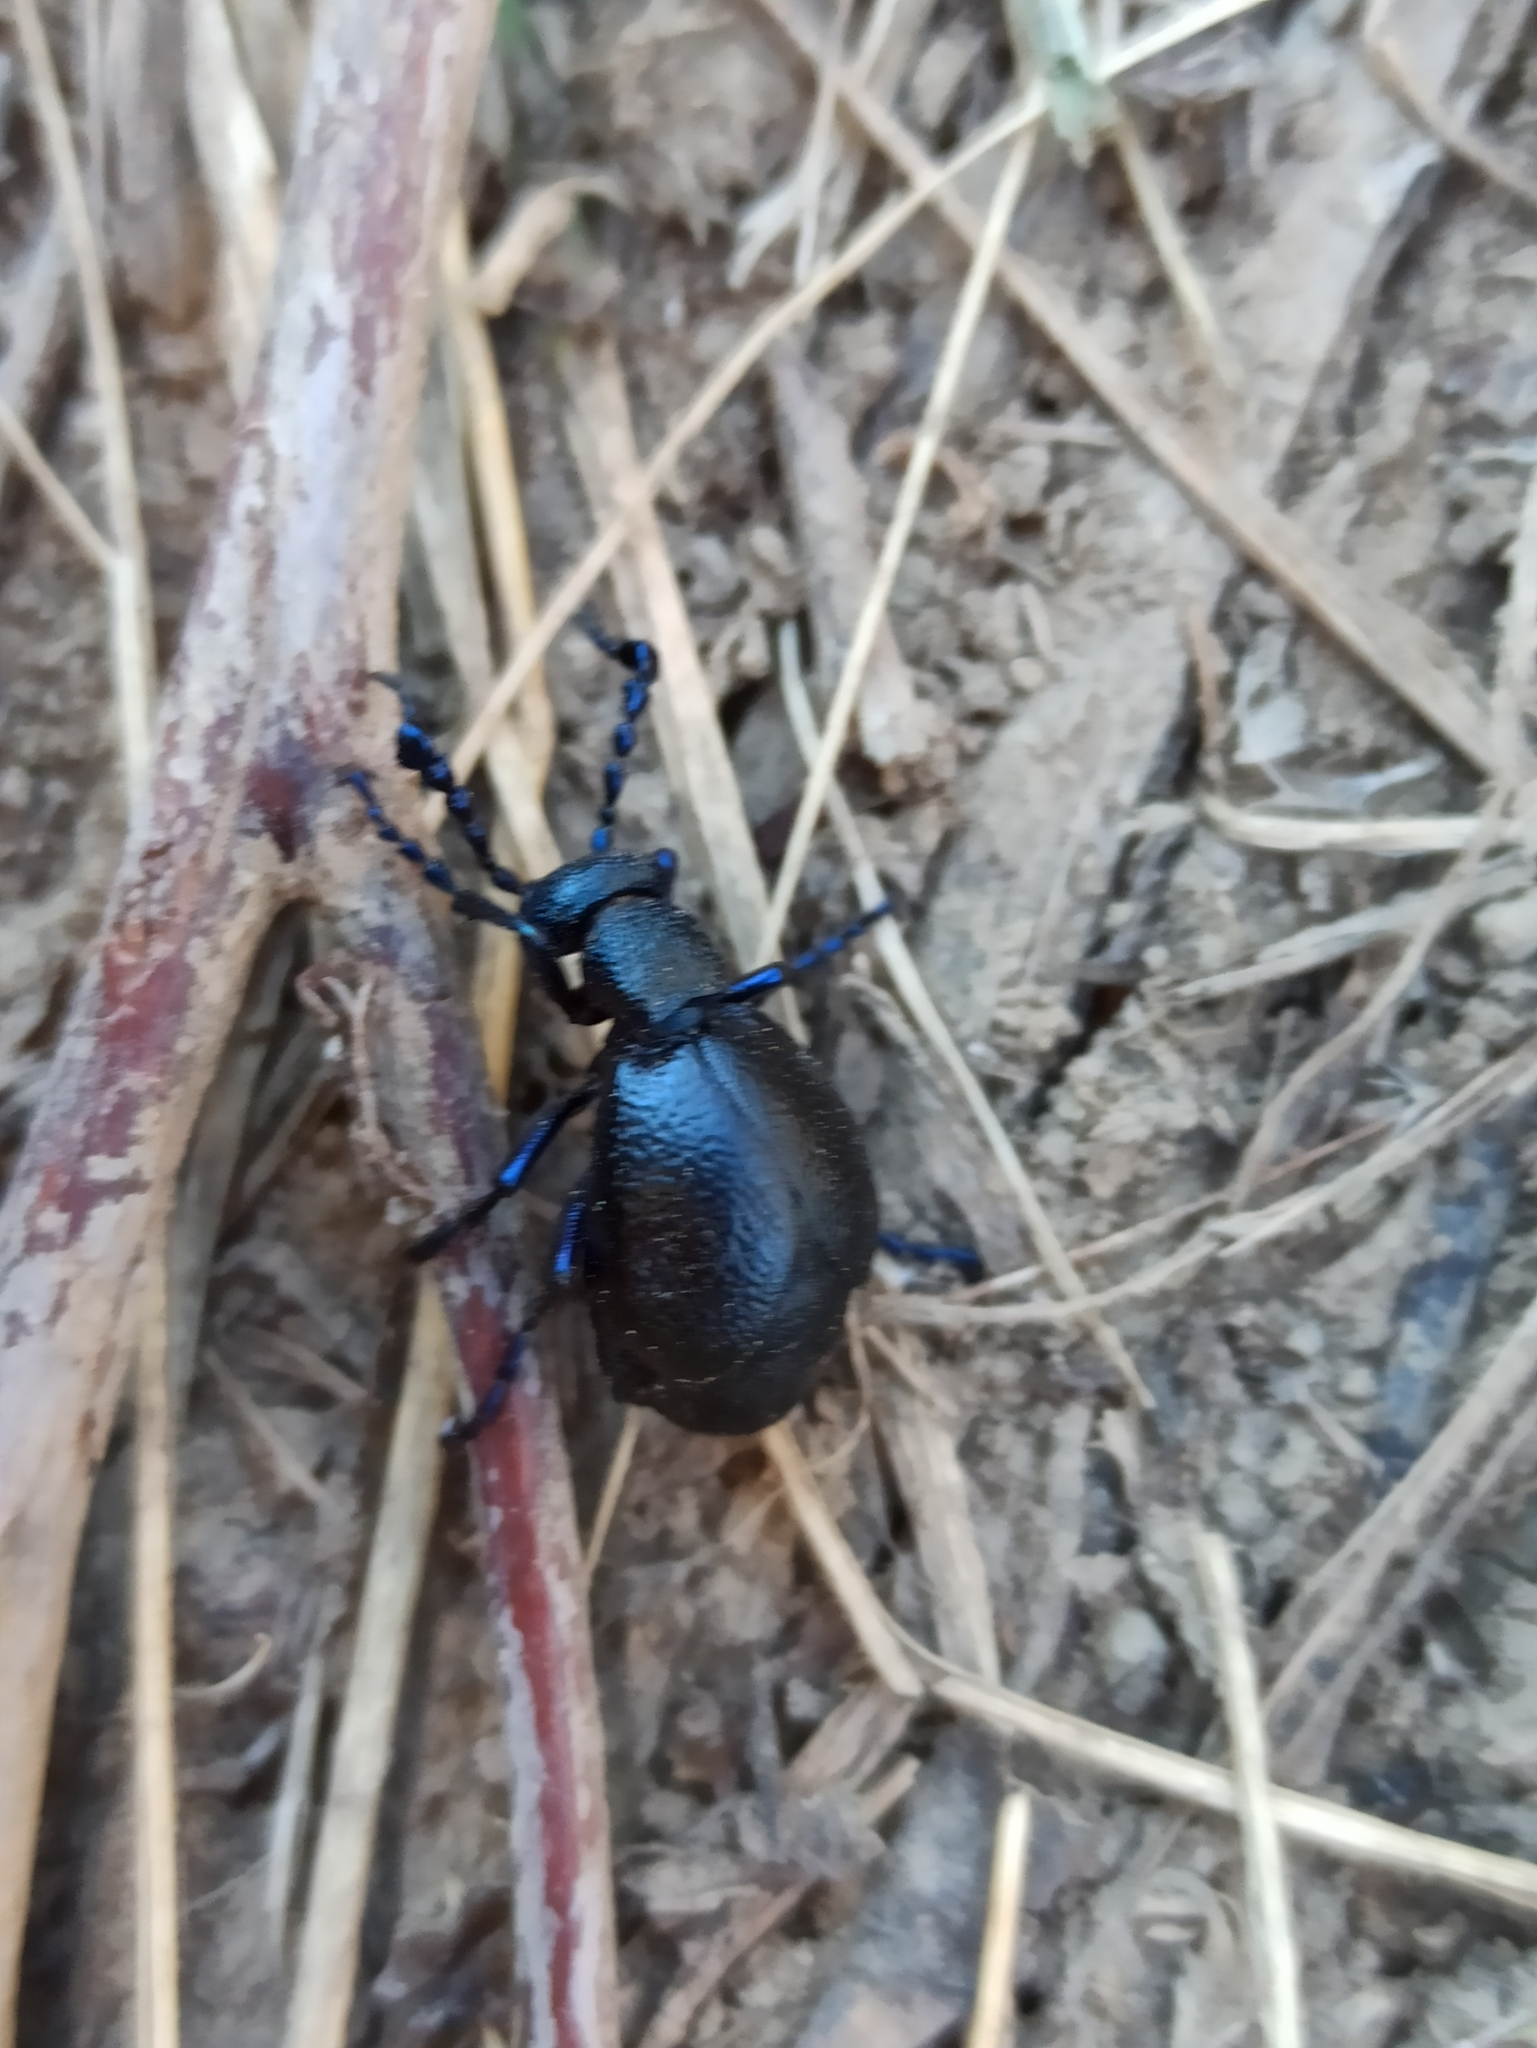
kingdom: Animalia
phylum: Arthropoda
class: Insecta
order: Coleoptera
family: Meloidae
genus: Meloe
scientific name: Meloe proscarabaeus
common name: Black oil-beetle
